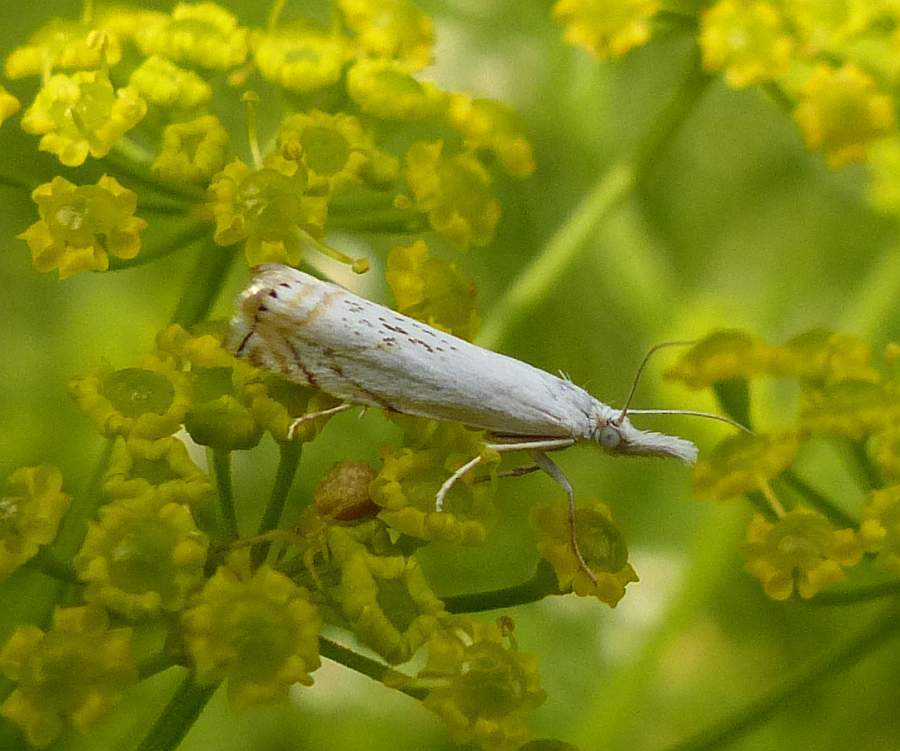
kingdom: Animalia
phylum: Arthropoda
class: Insecta
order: Lepidoptera
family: Crambidae
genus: Crambus
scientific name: Crambus albellus
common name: Small white grass-veneer
